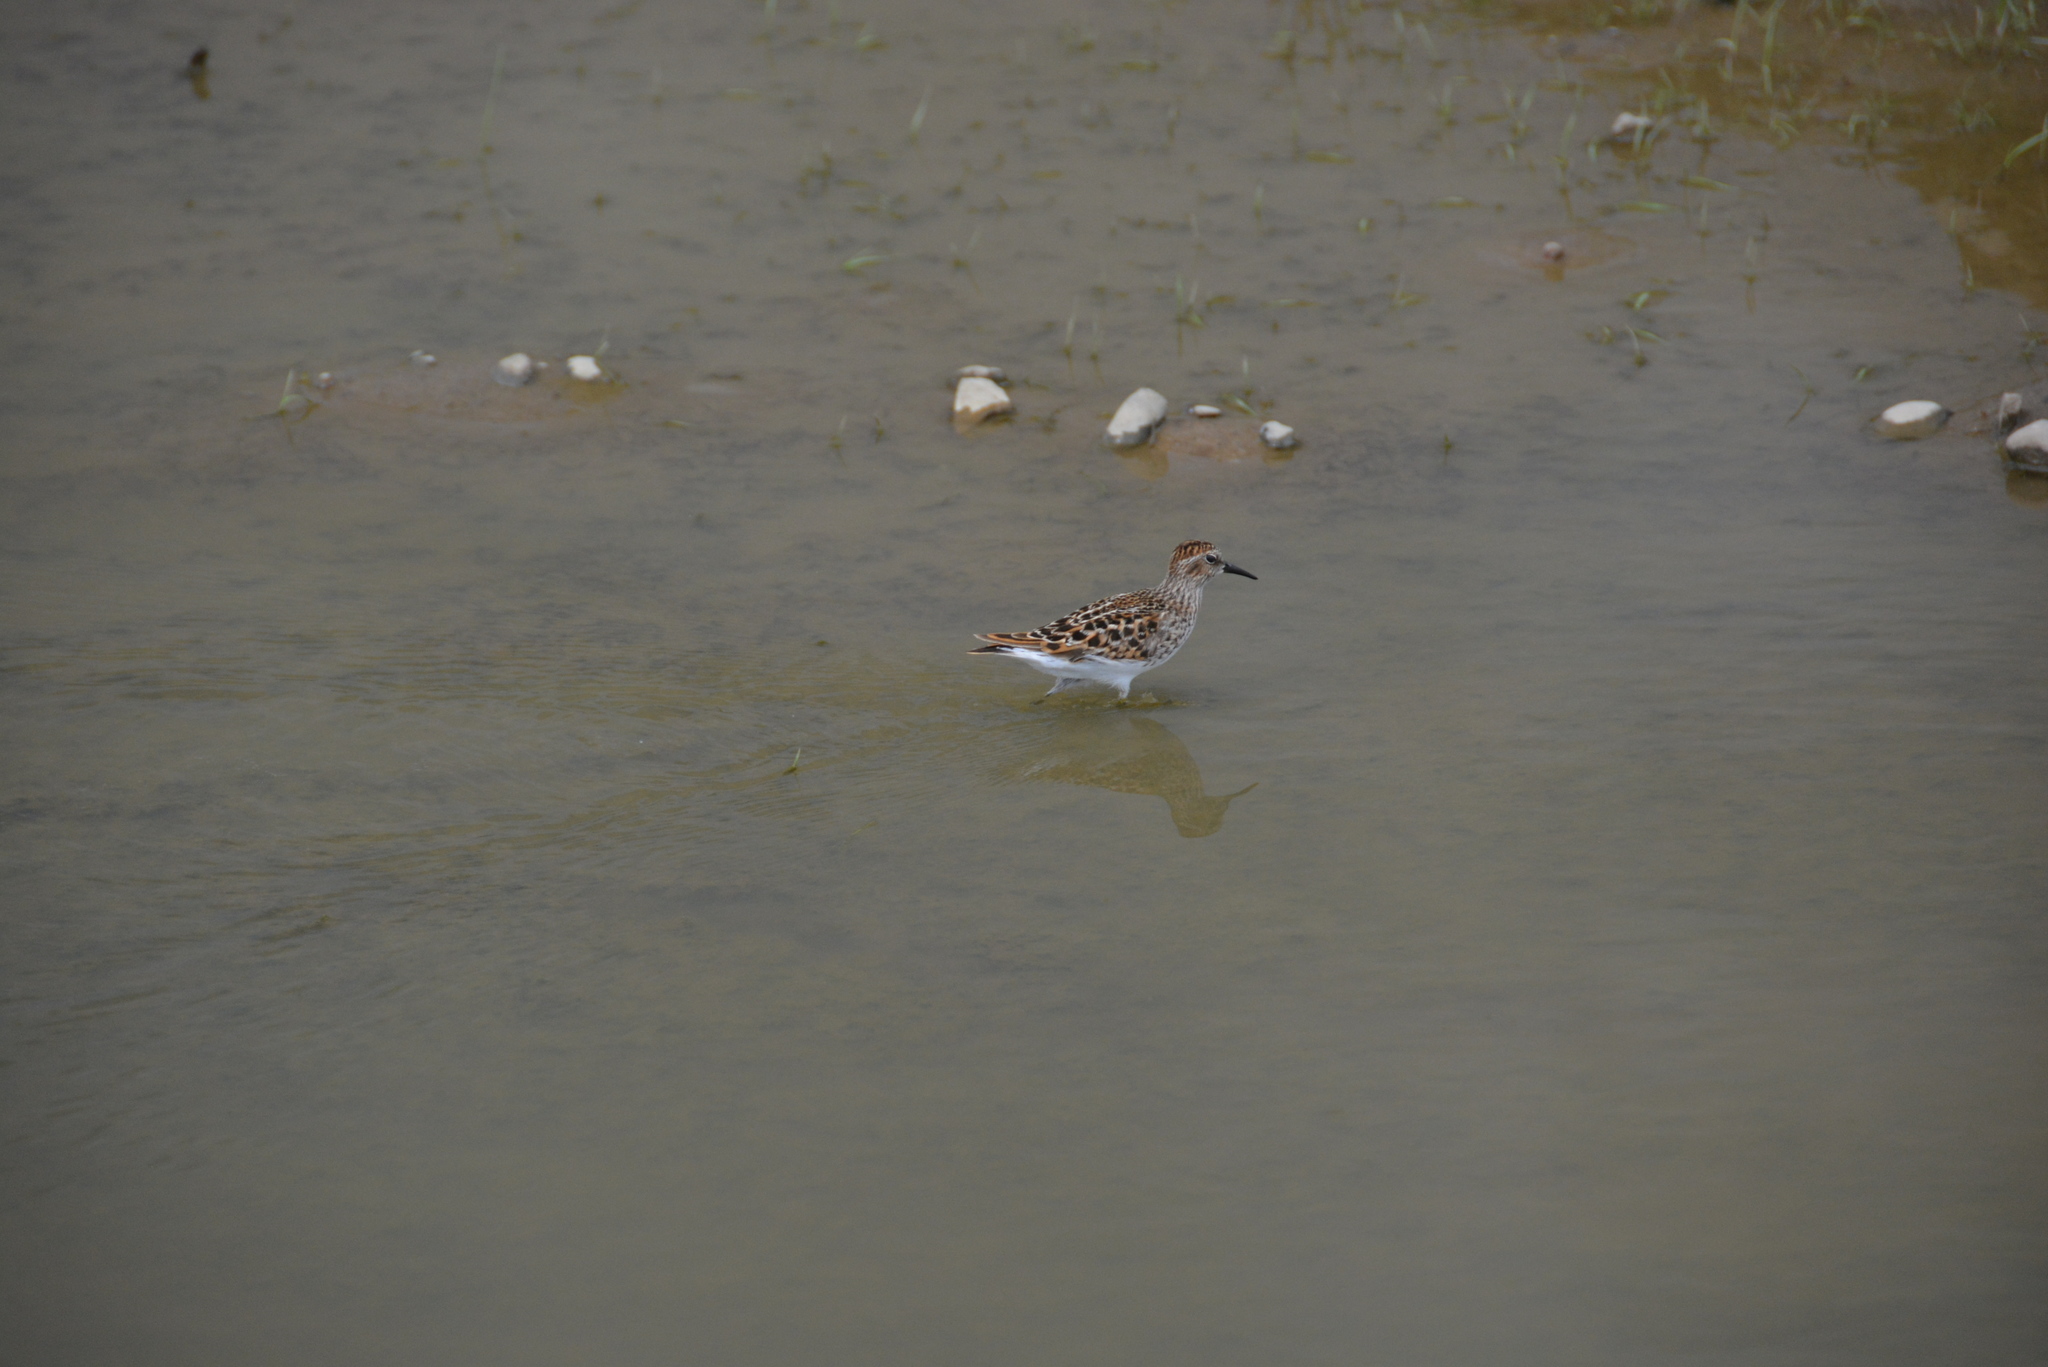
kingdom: Animalia
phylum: Chordata
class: Aves
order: Charadriiformes
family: Scolopacidae
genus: Calidris
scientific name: Calidris minutilla
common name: Least sandpiper
